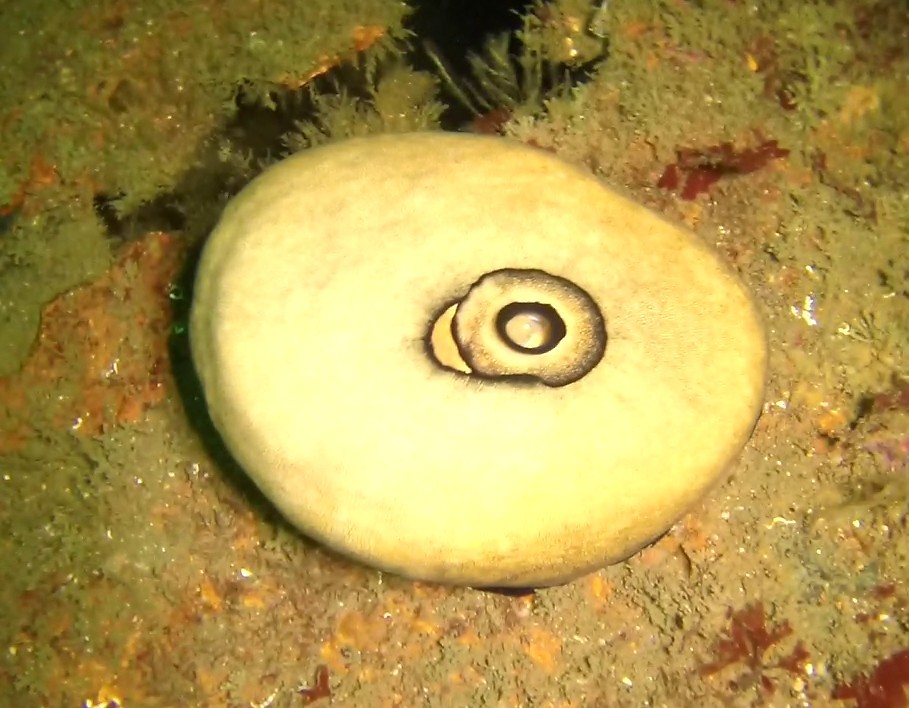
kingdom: Animalia
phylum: Mollusca
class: Gastropoda
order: Lepetellida
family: Fissurellidae
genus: Megathura
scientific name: Megathura crenulata
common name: Giant keyhole limpet
